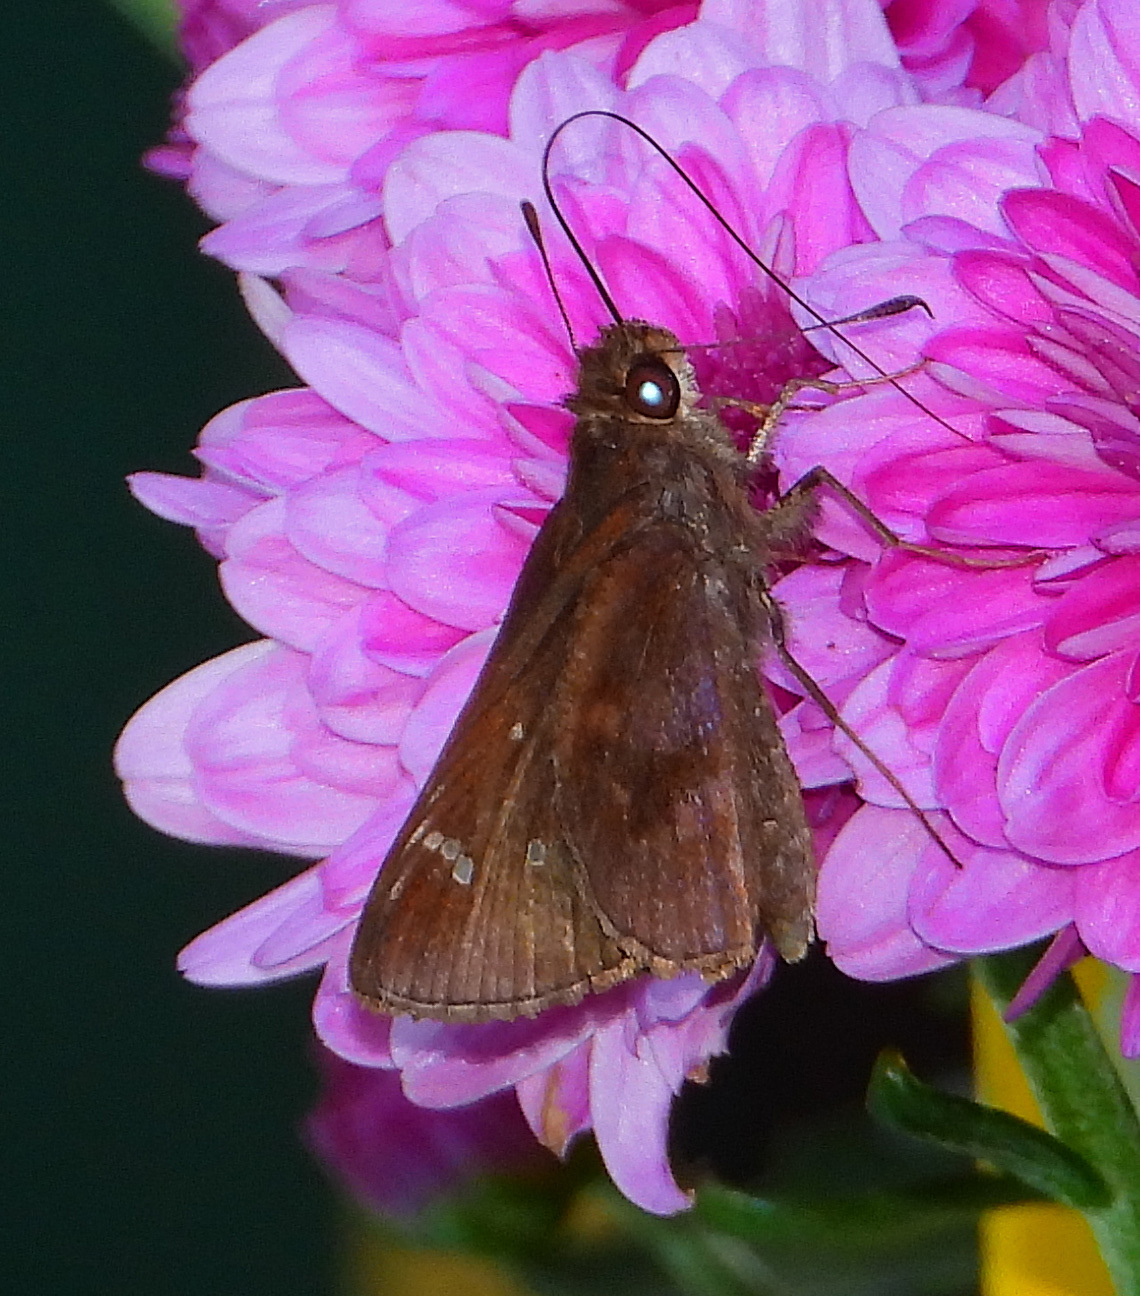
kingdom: Animalia
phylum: Arthropoda
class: Insecta
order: Lepidoptera
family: Hesperiidae
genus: Lerema
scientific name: Lerema accius
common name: Clouded skipper
